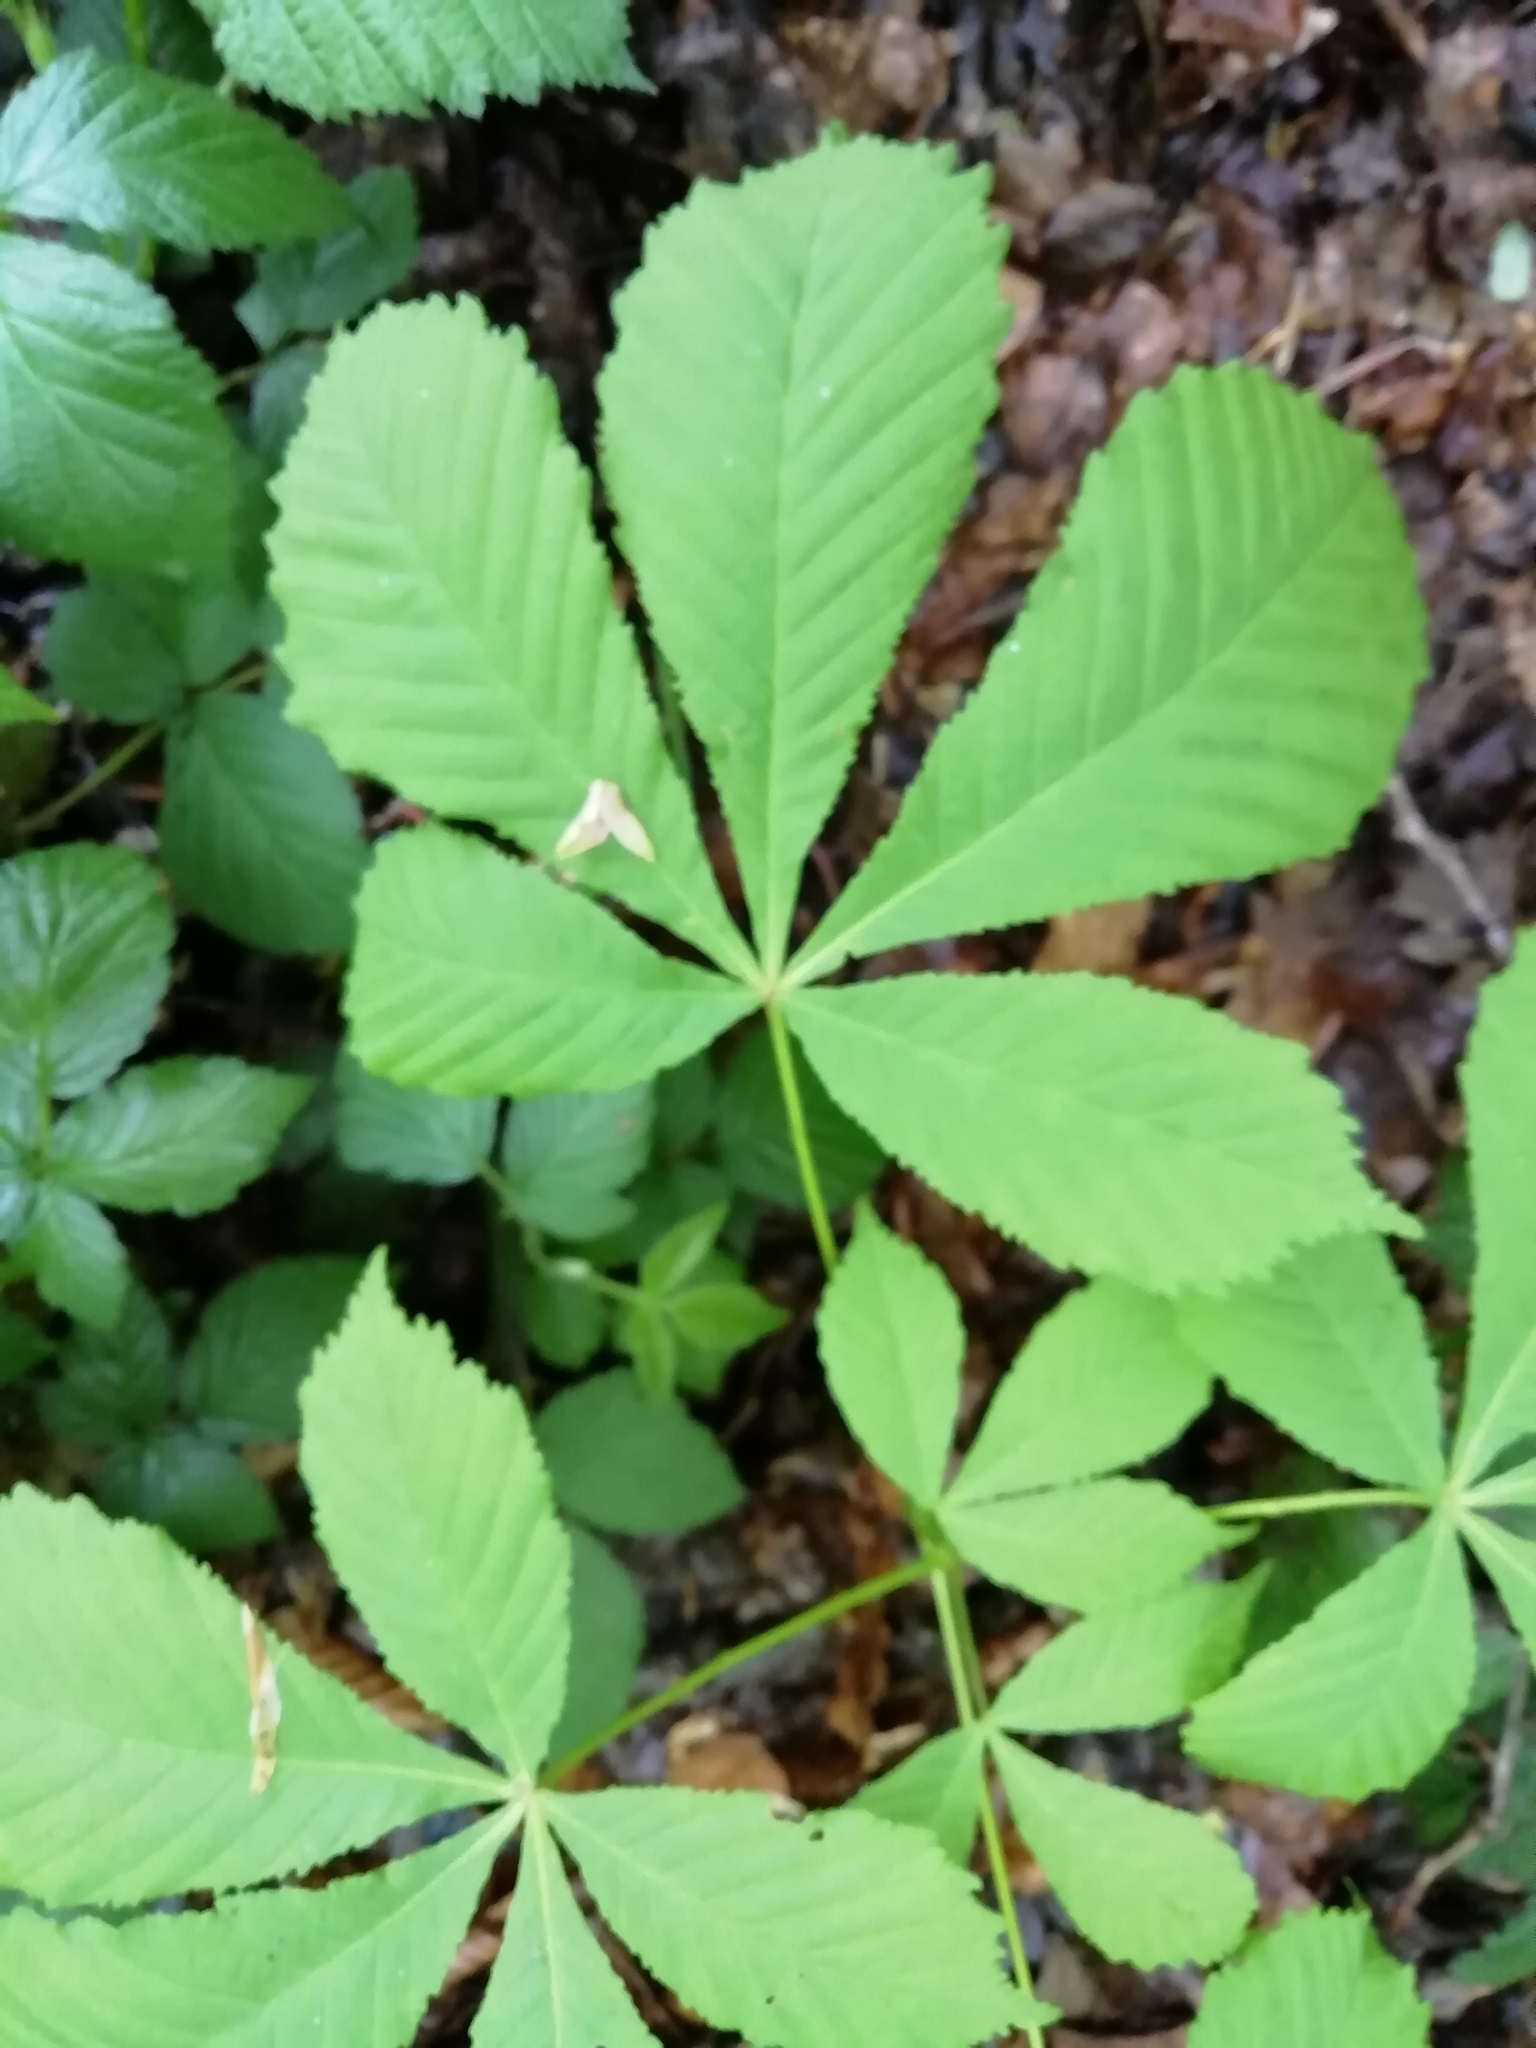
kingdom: Plantae
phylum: Tracheophyta
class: Magnoliopsida
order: Sapindales
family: Sapindaceae
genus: Aesculus
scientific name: Aesculus hippocastanum
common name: Horse-chestnut
